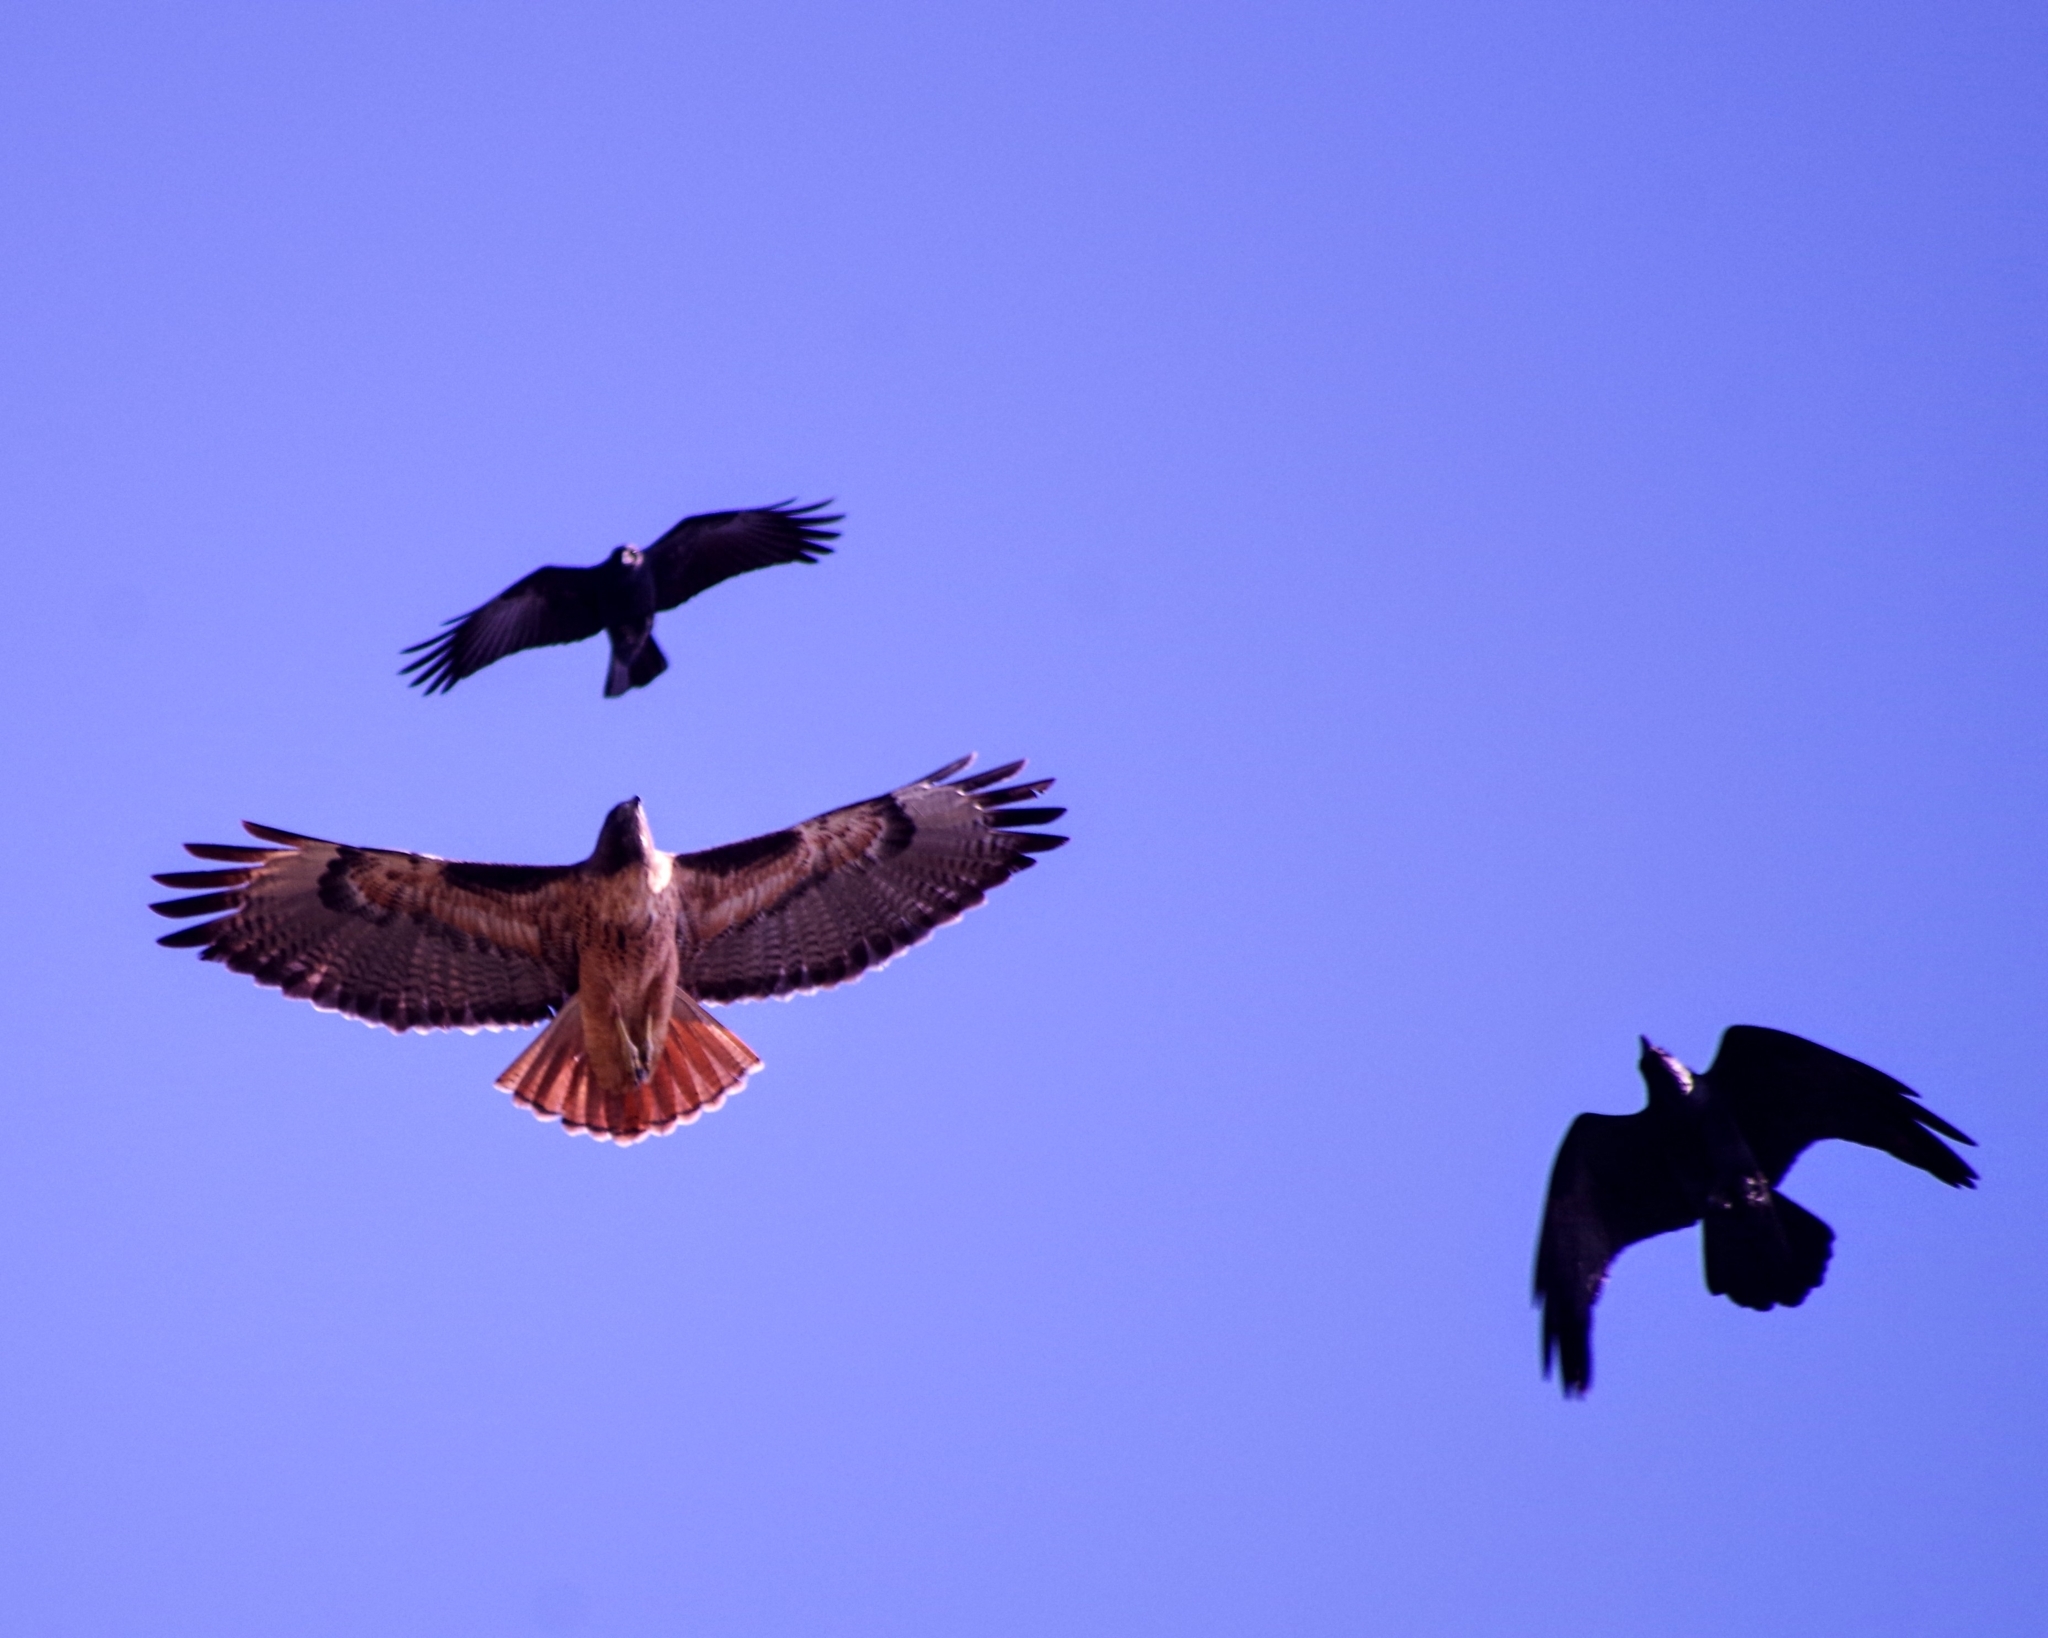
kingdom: Animalia
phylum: Chordata
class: Aves
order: Accipitriformes
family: Accipitridae
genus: Buteo
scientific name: Buteo jamaicensis
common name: Red-tailed hawk
